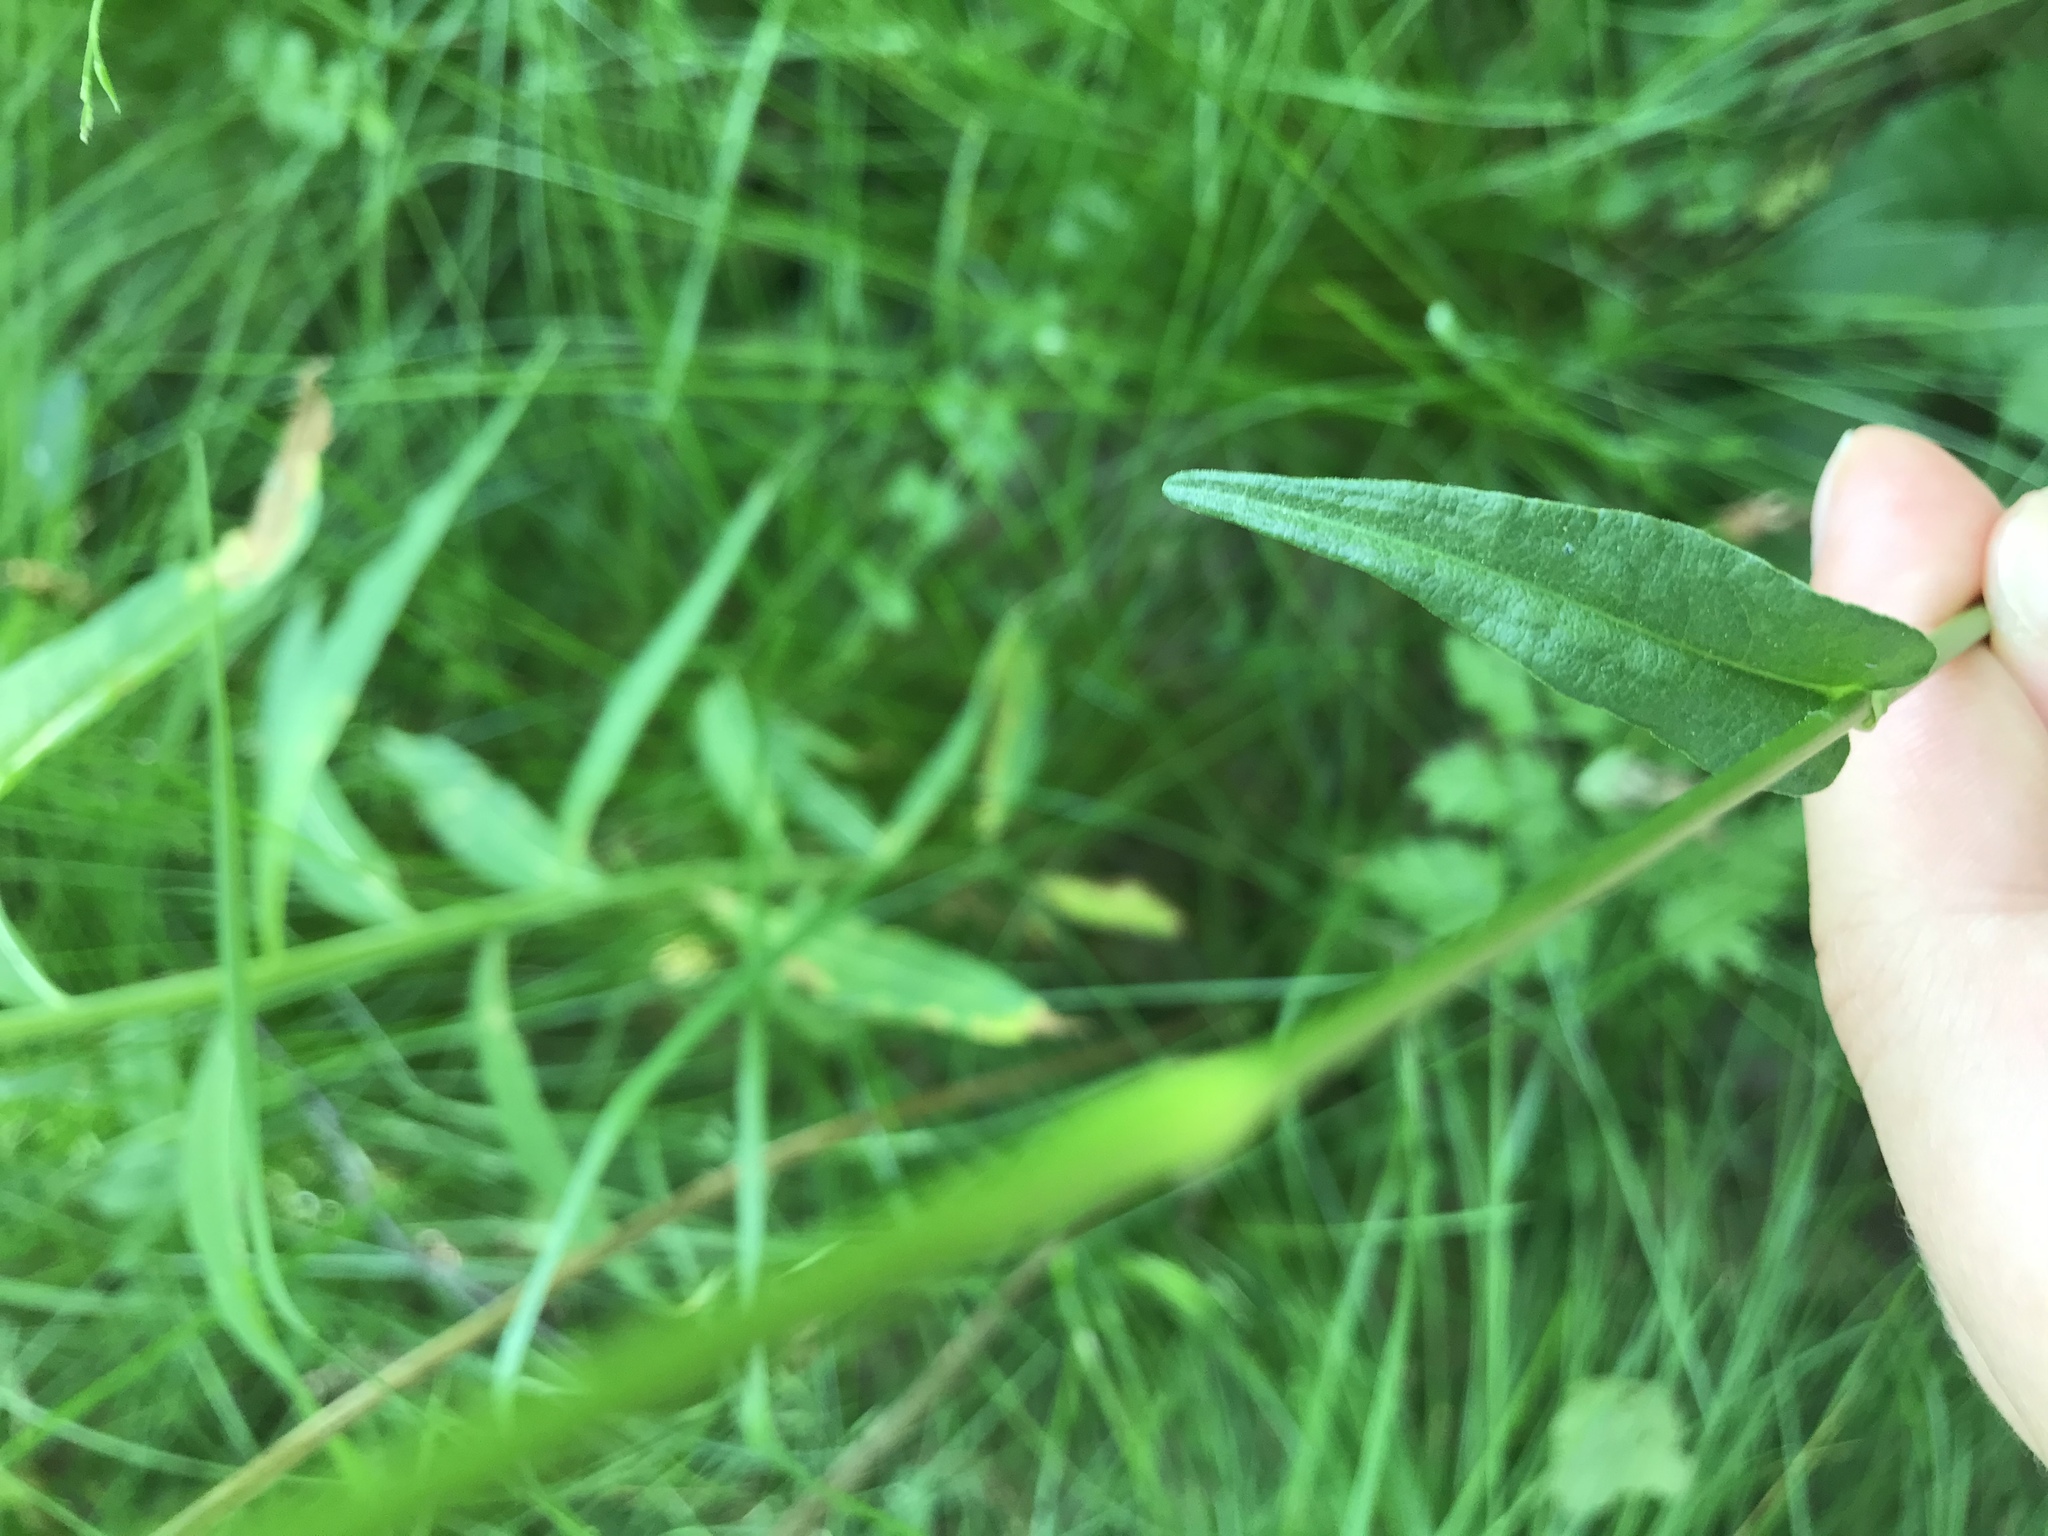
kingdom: Plantae
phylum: Tracheophyta
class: Magnoliopsida
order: Caryophyllales
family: Polygonaceae
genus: Bistorta
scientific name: Bistorta officinalis
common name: Common bistort
